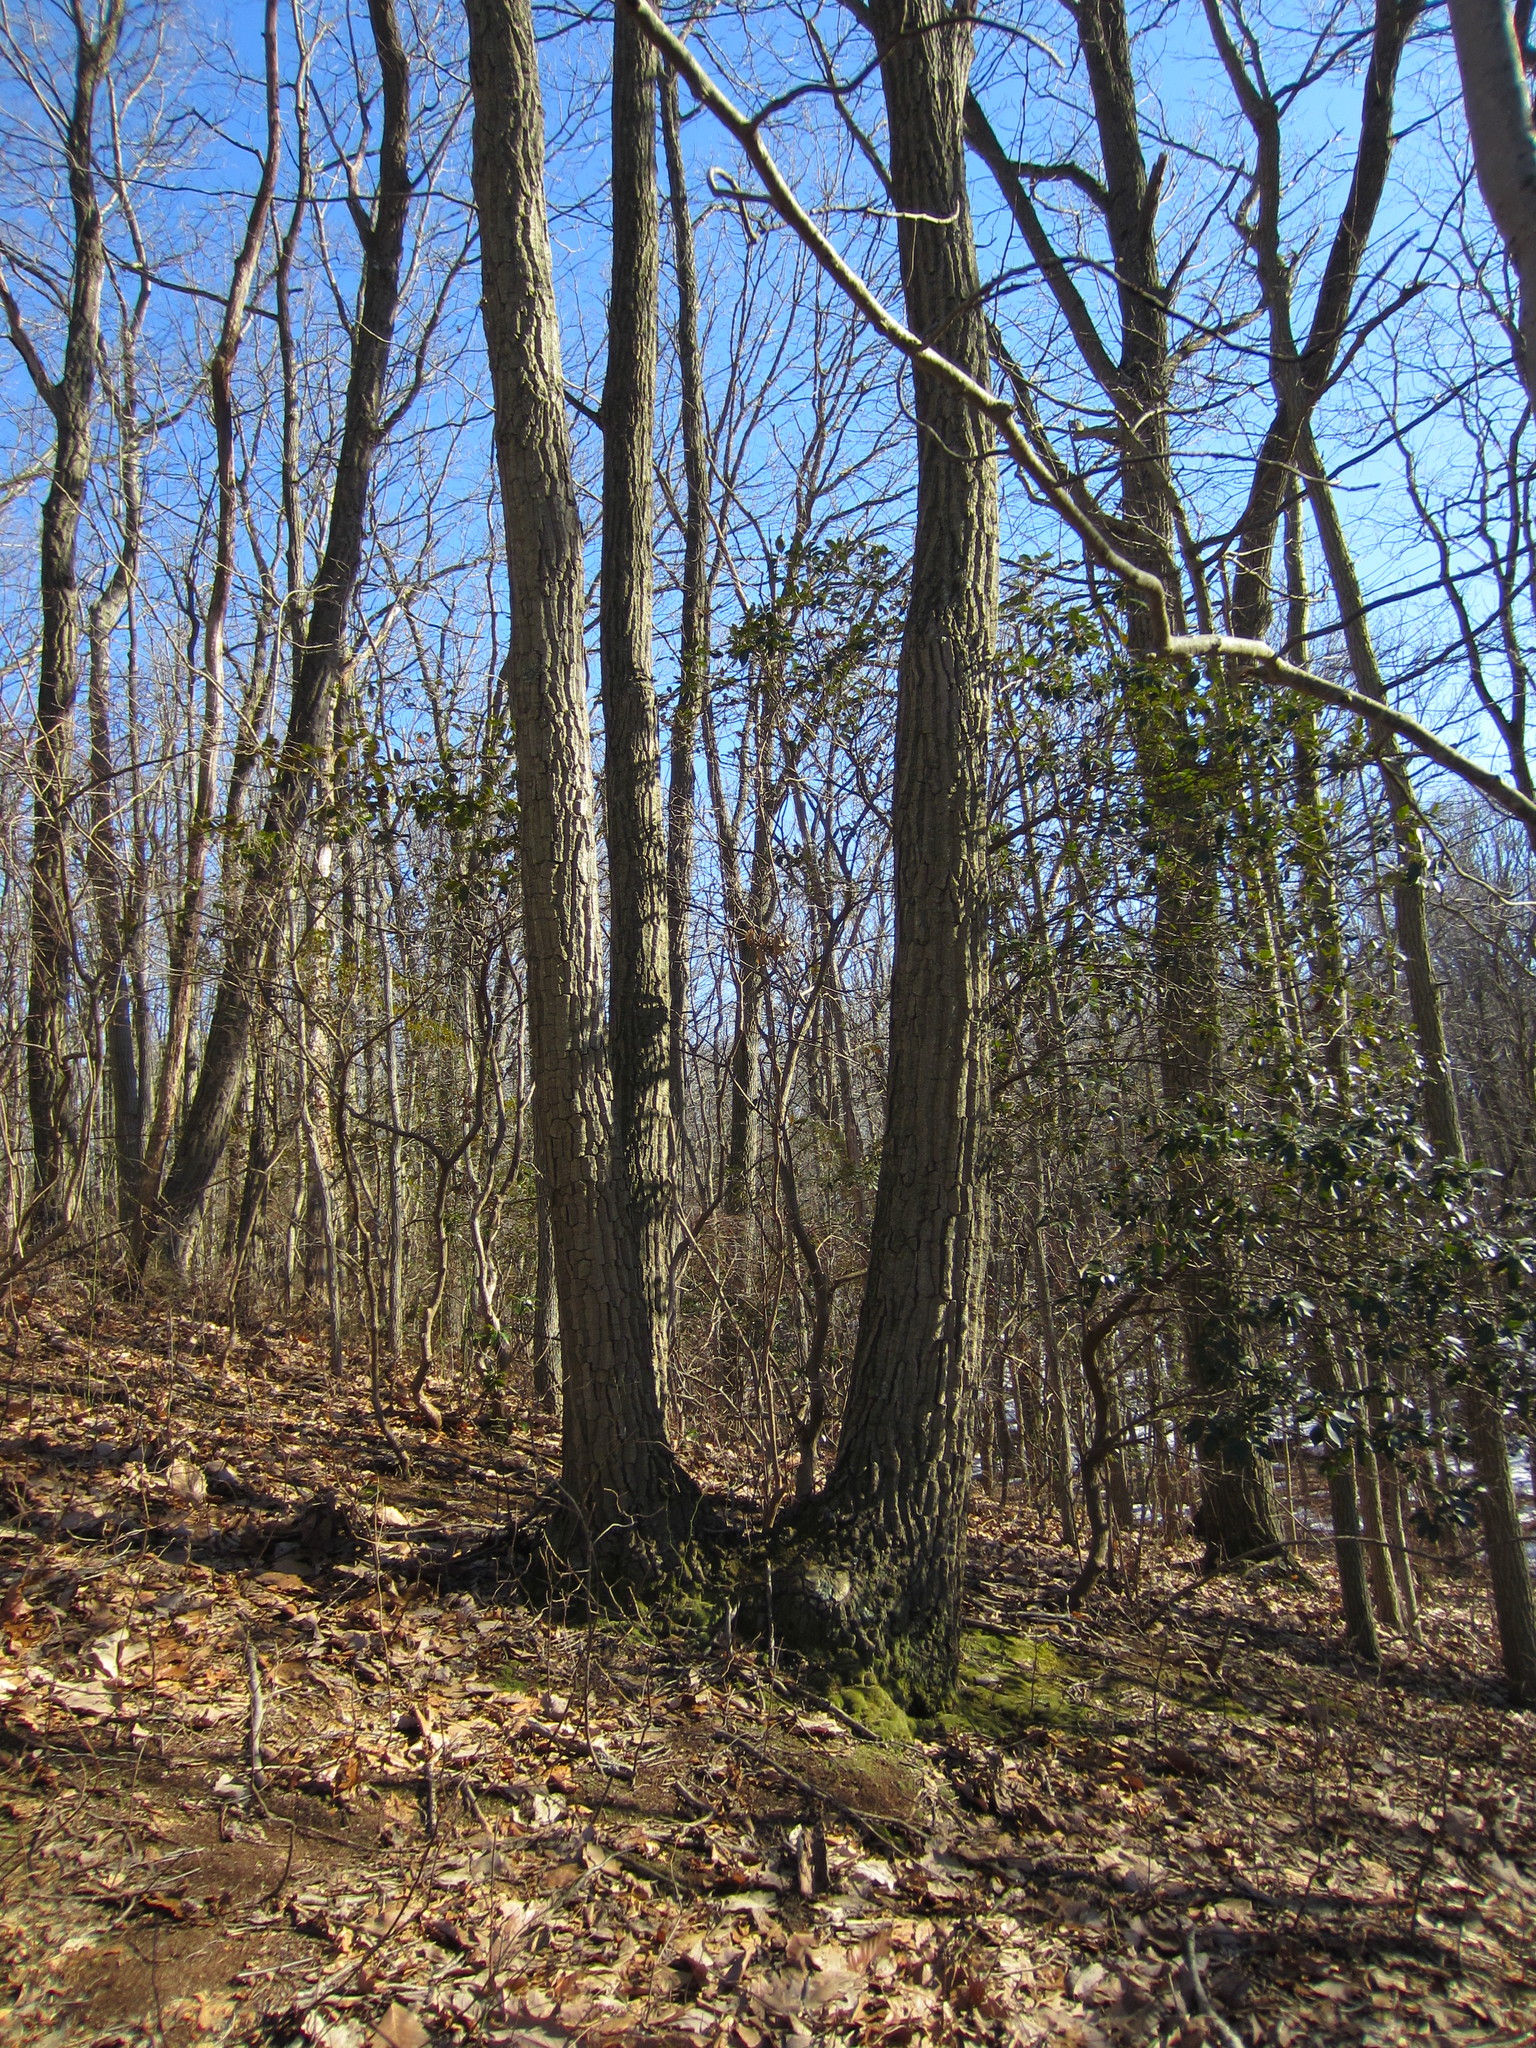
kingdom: Plantae
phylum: Tracheophyta
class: Magnoliopsida
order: Fagales
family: Fagaceae
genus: Quercus
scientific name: Quercus montana
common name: Chestnut oak
